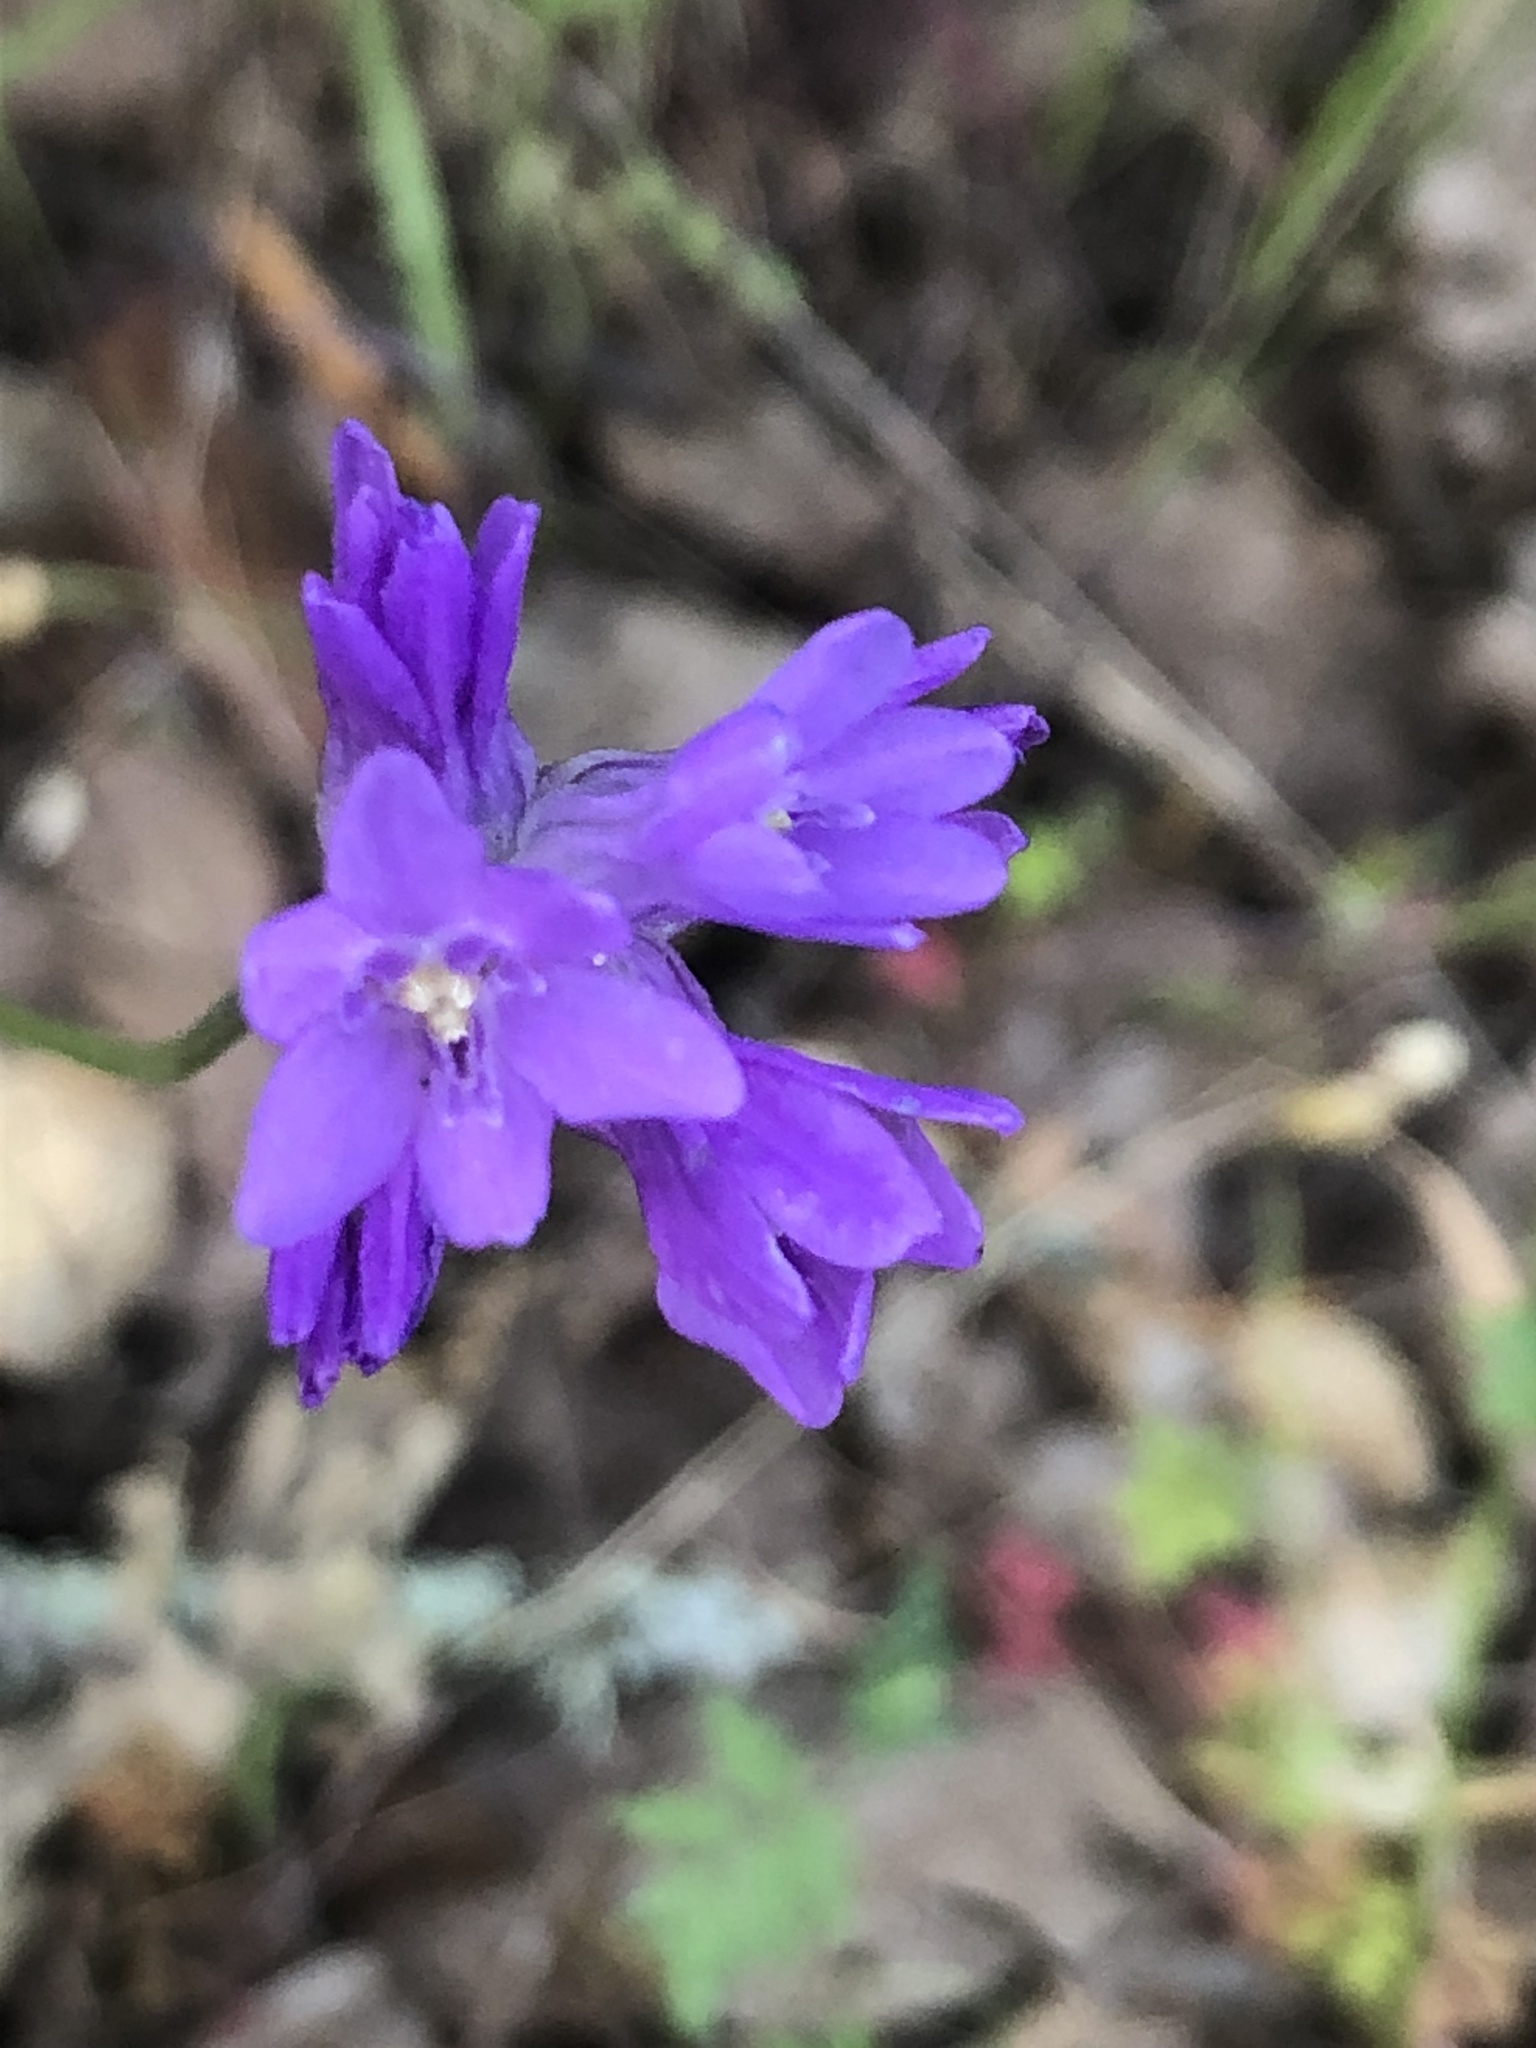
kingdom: Plantae
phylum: Tracheophyta
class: Liliopsida
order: Asparagales
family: Asparagaceae
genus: Dichelostemma
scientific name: Dichelostemma congestum
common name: Fork-tooth ookow
